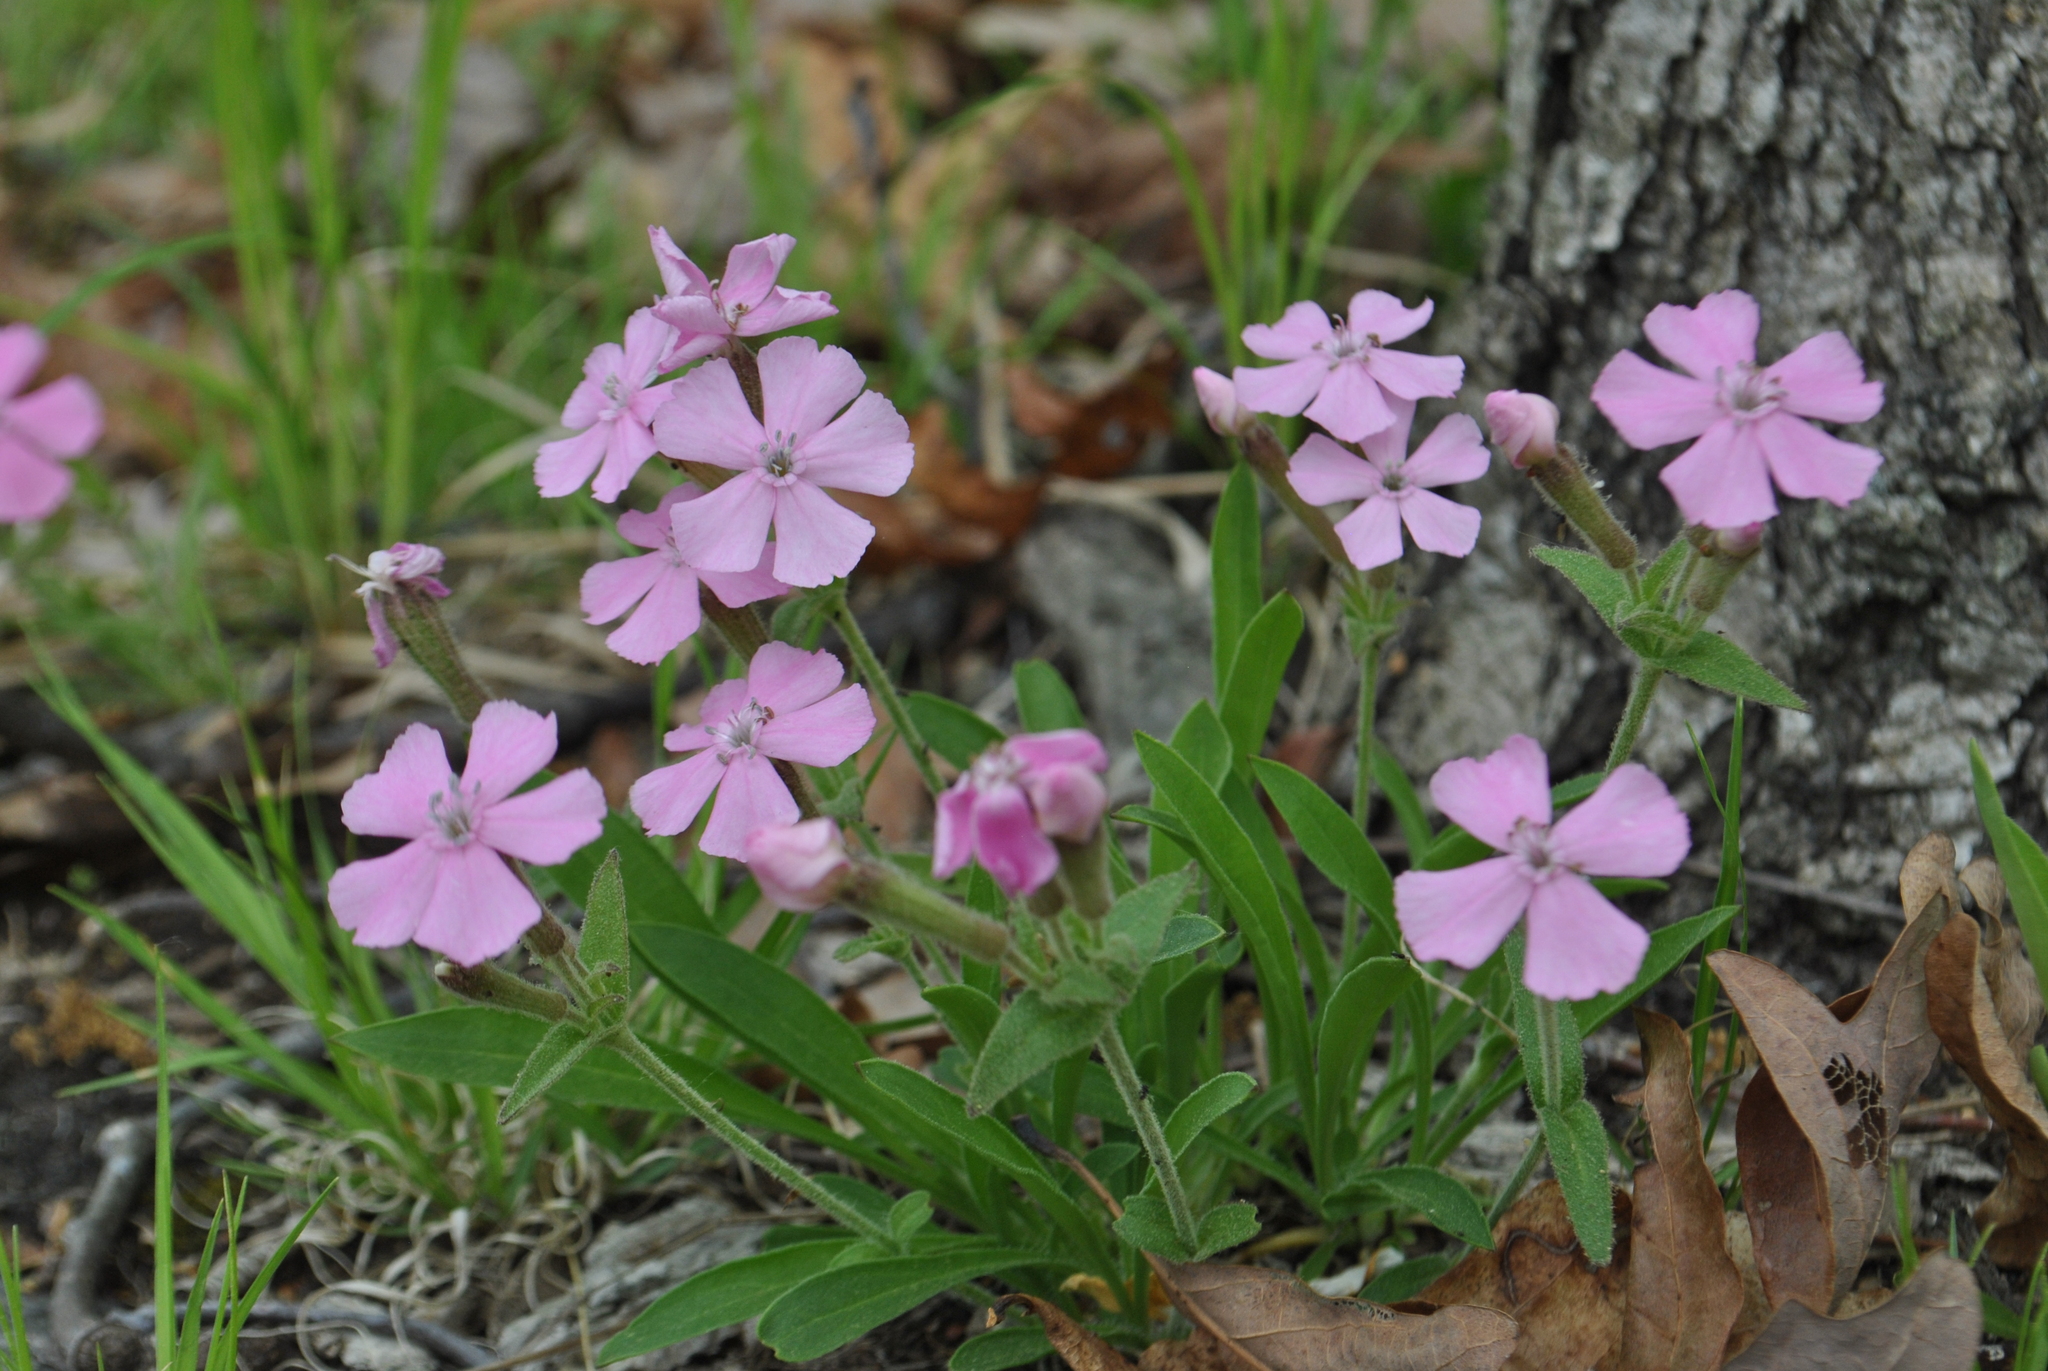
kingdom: Plantae
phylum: Tracheophyta
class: Magnoliopsida
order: Caryophyllales
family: Caryophyllaceae
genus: Silene
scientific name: Silene caroliniana
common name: Sticky catchfly
